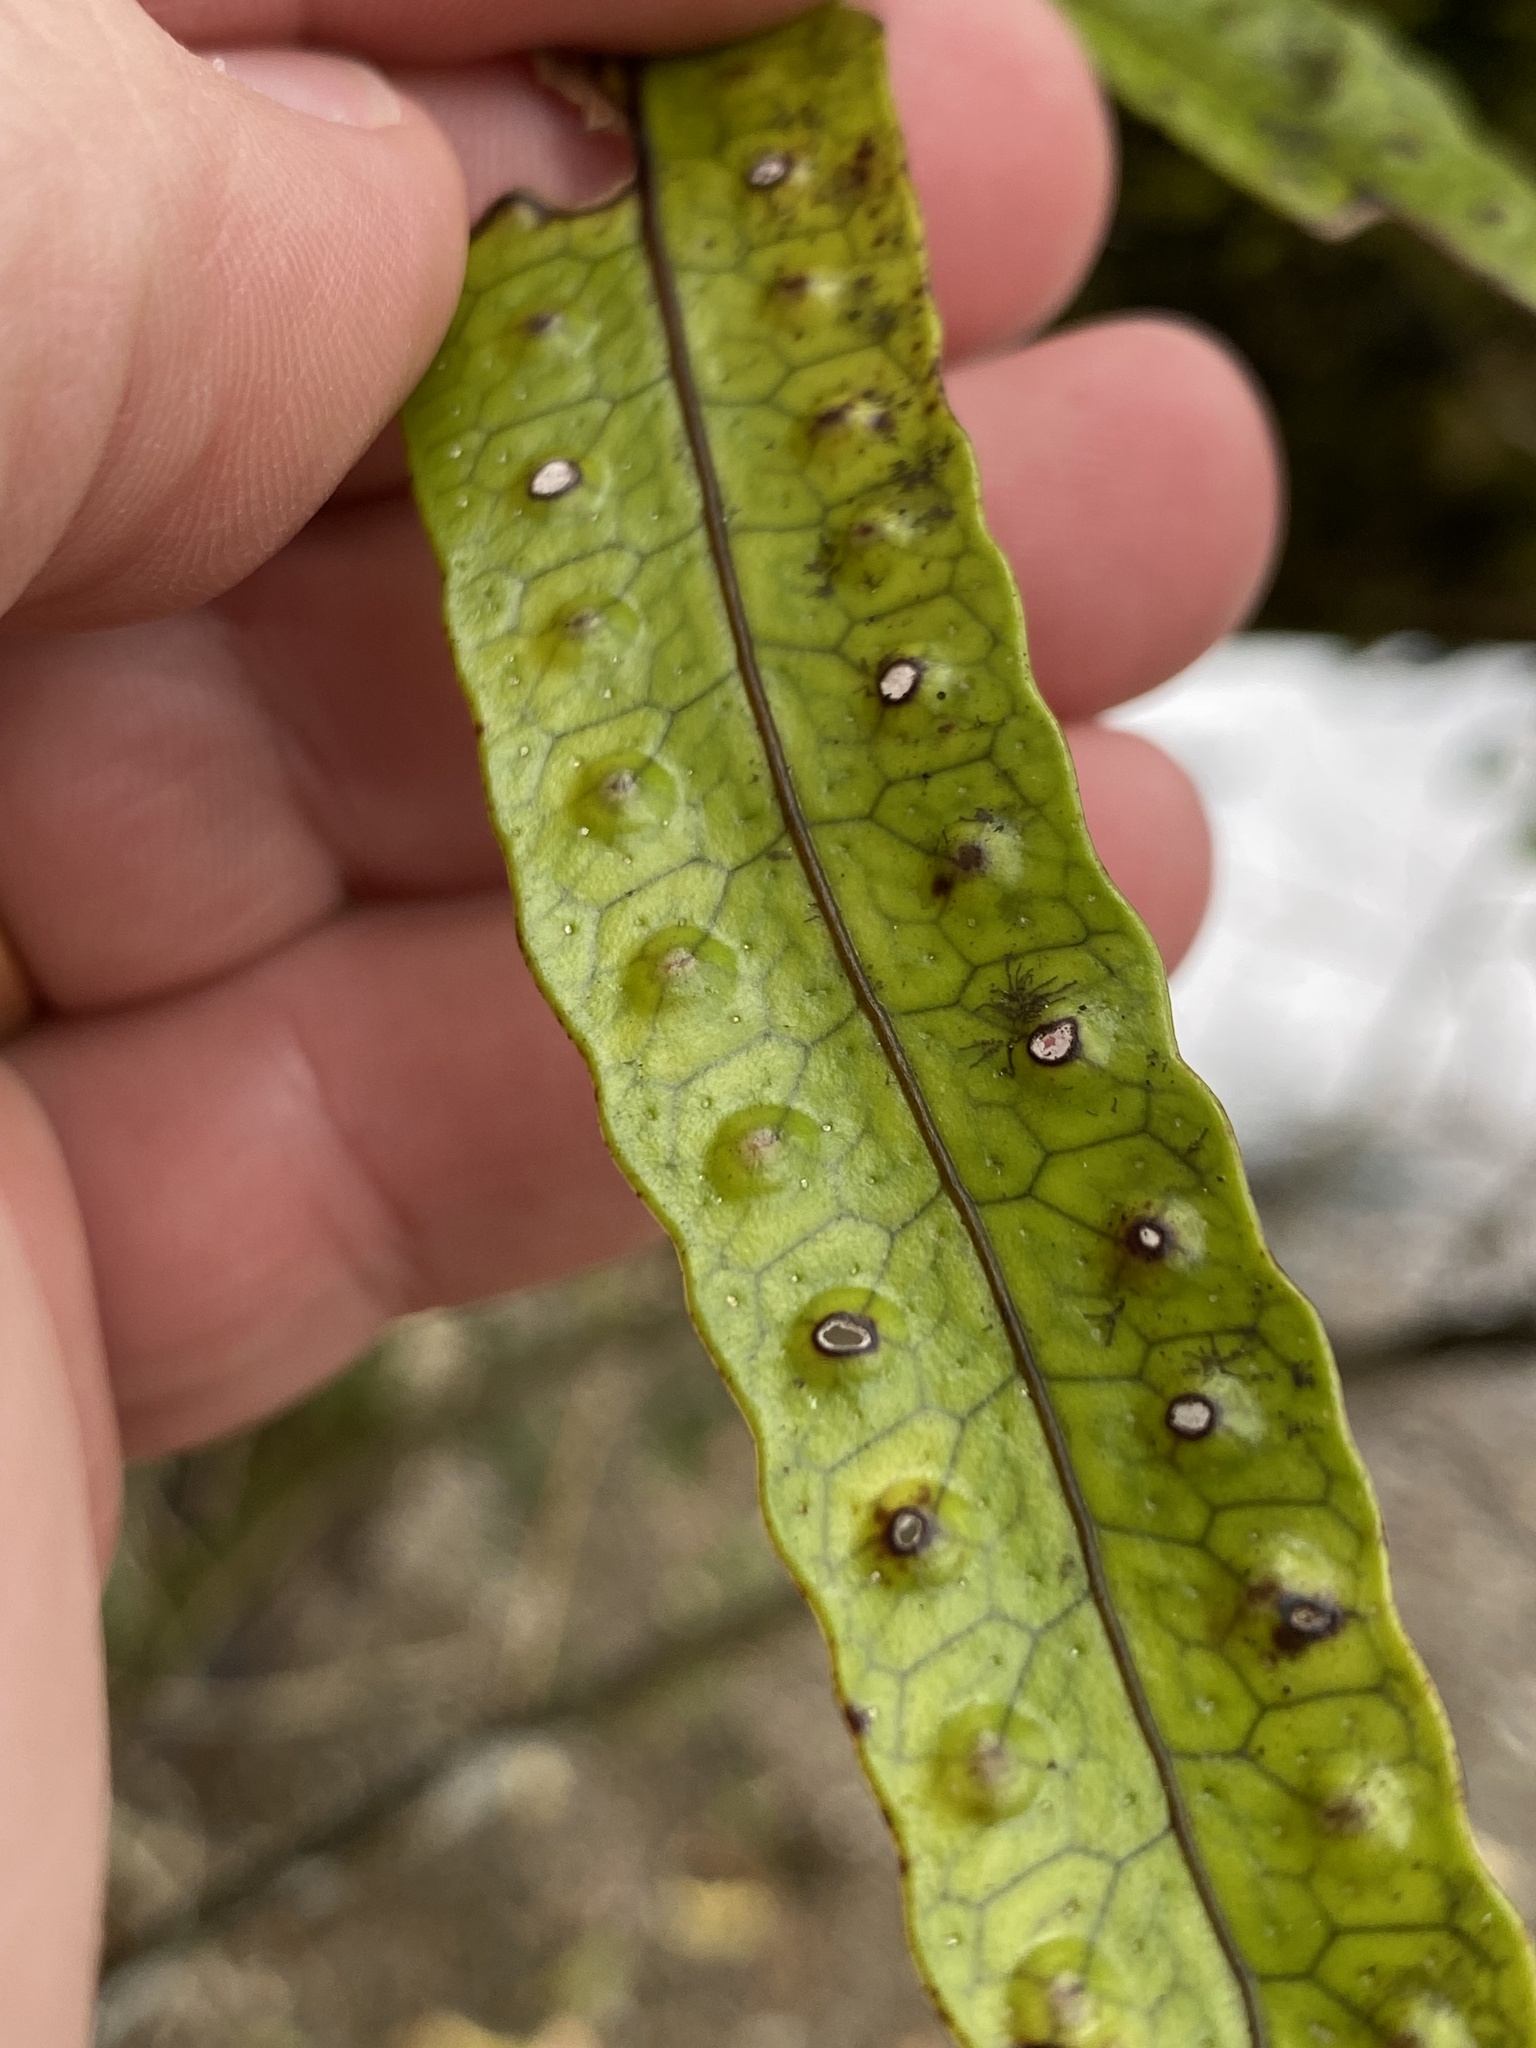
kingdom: Plantae
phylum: Tracheophyta
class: Polypodiopsida
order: Polypodiales
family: Polypodiaceae
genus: Lecanopteris
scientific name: Lecanopteris pustulata
